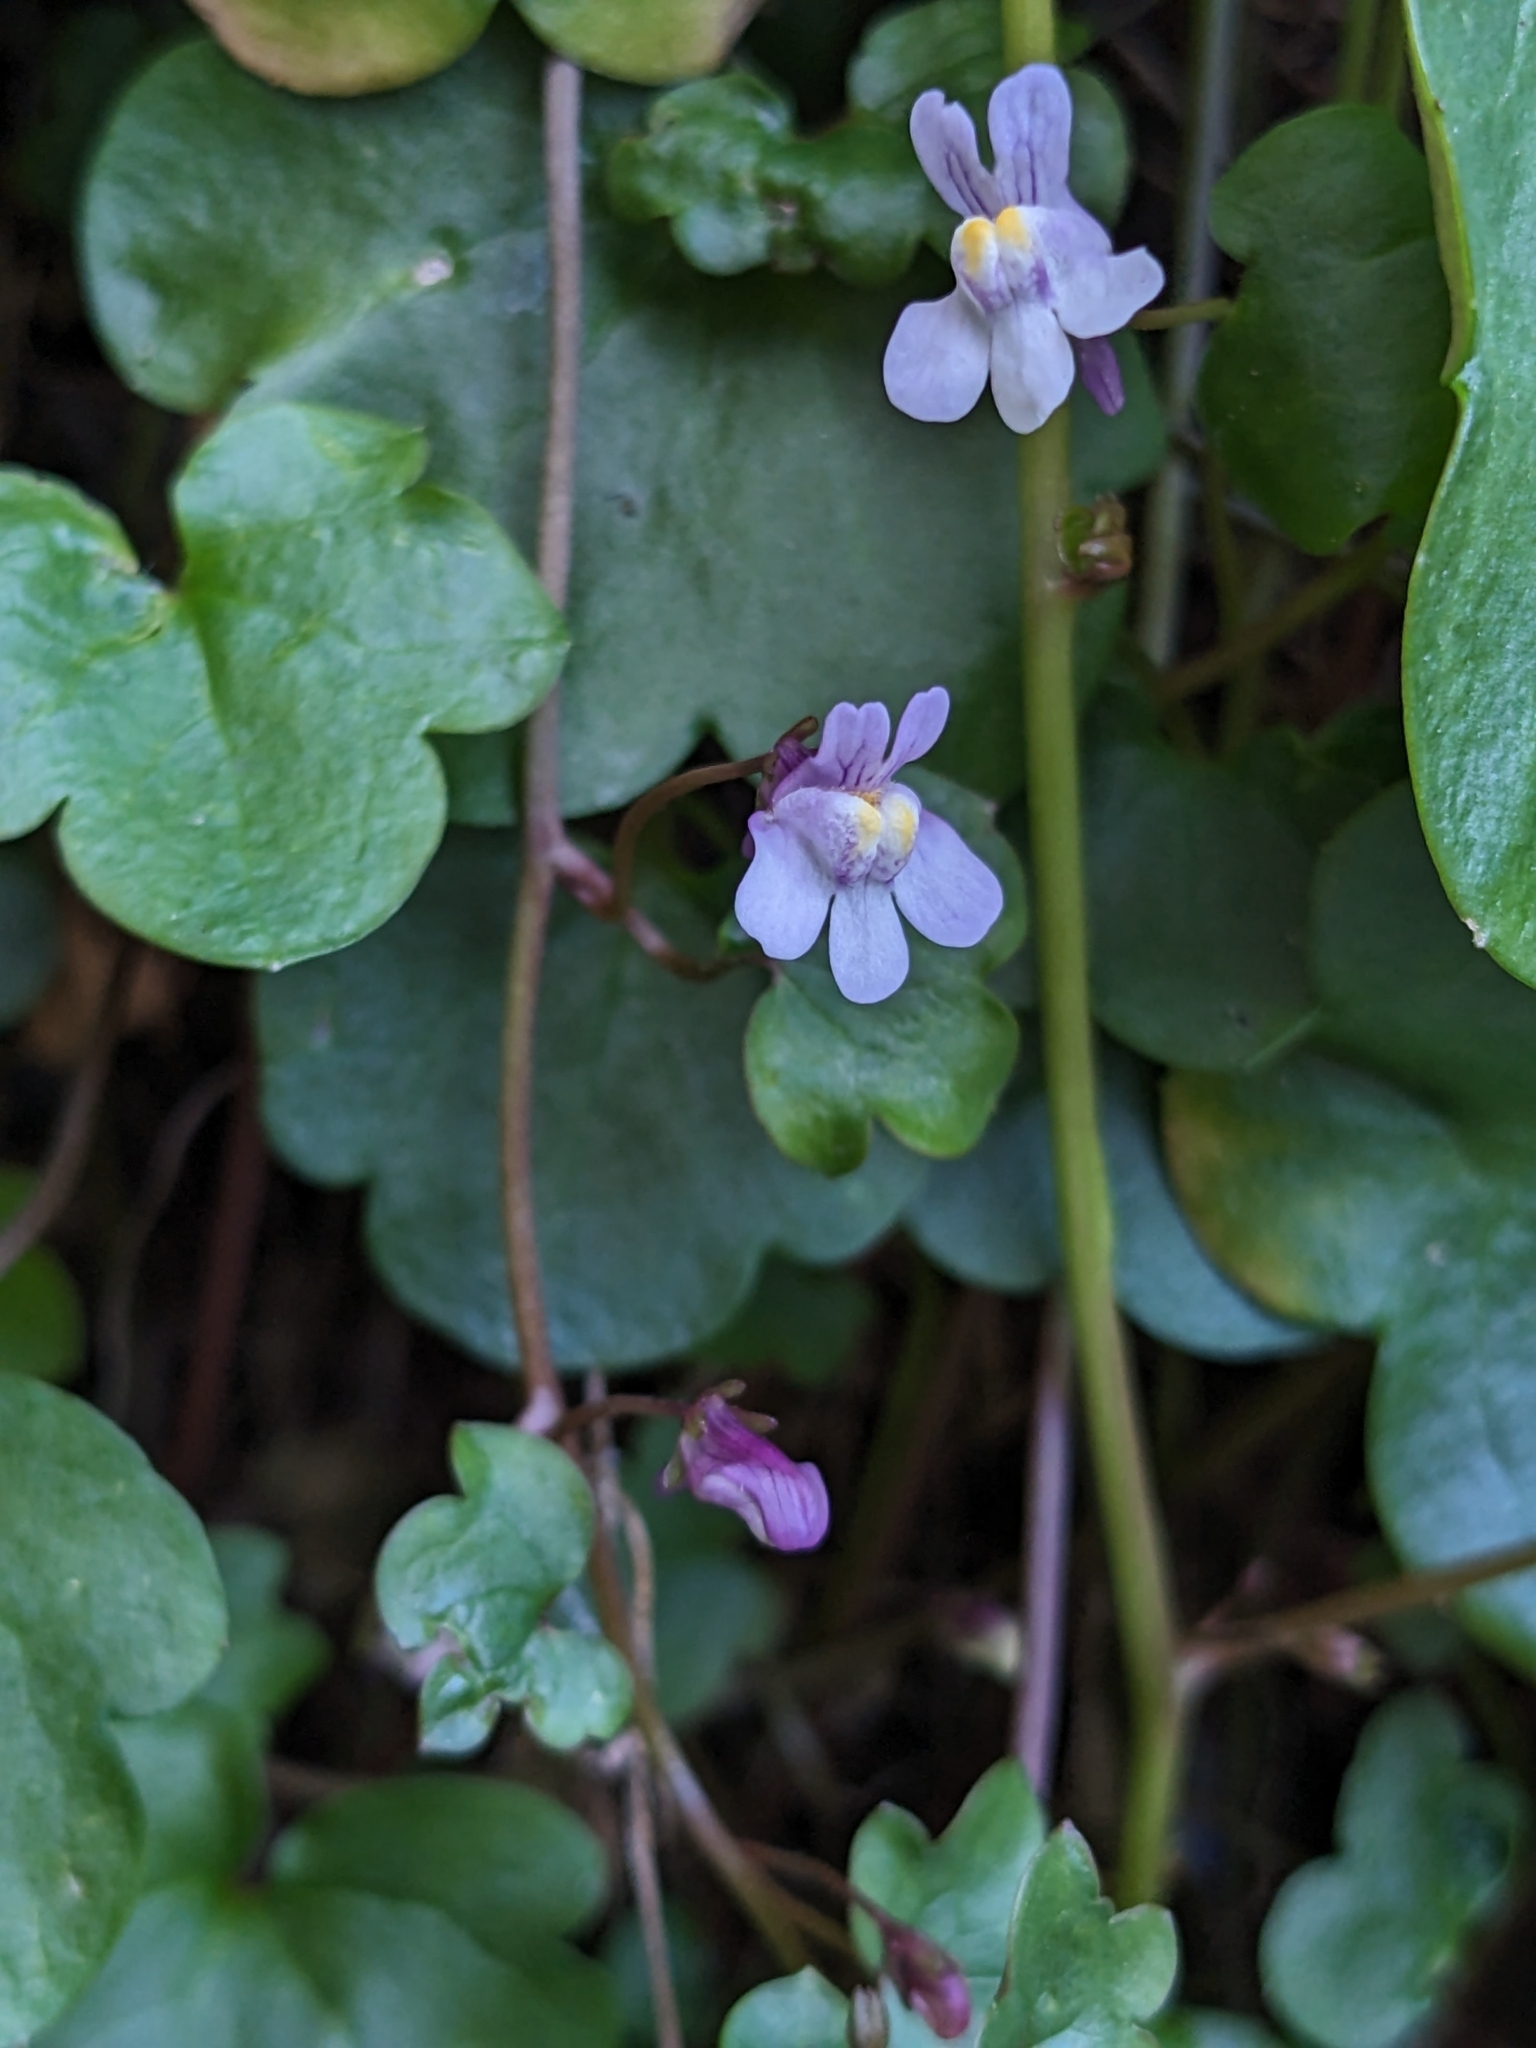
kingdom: Plantae
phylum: Tracheophyta
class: Magnoliopsida
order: Lamiales
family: Plantaginaceae
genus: Cymbalaria
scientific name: Cymbalaria muralis
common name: Ivy-leaved toadflax
